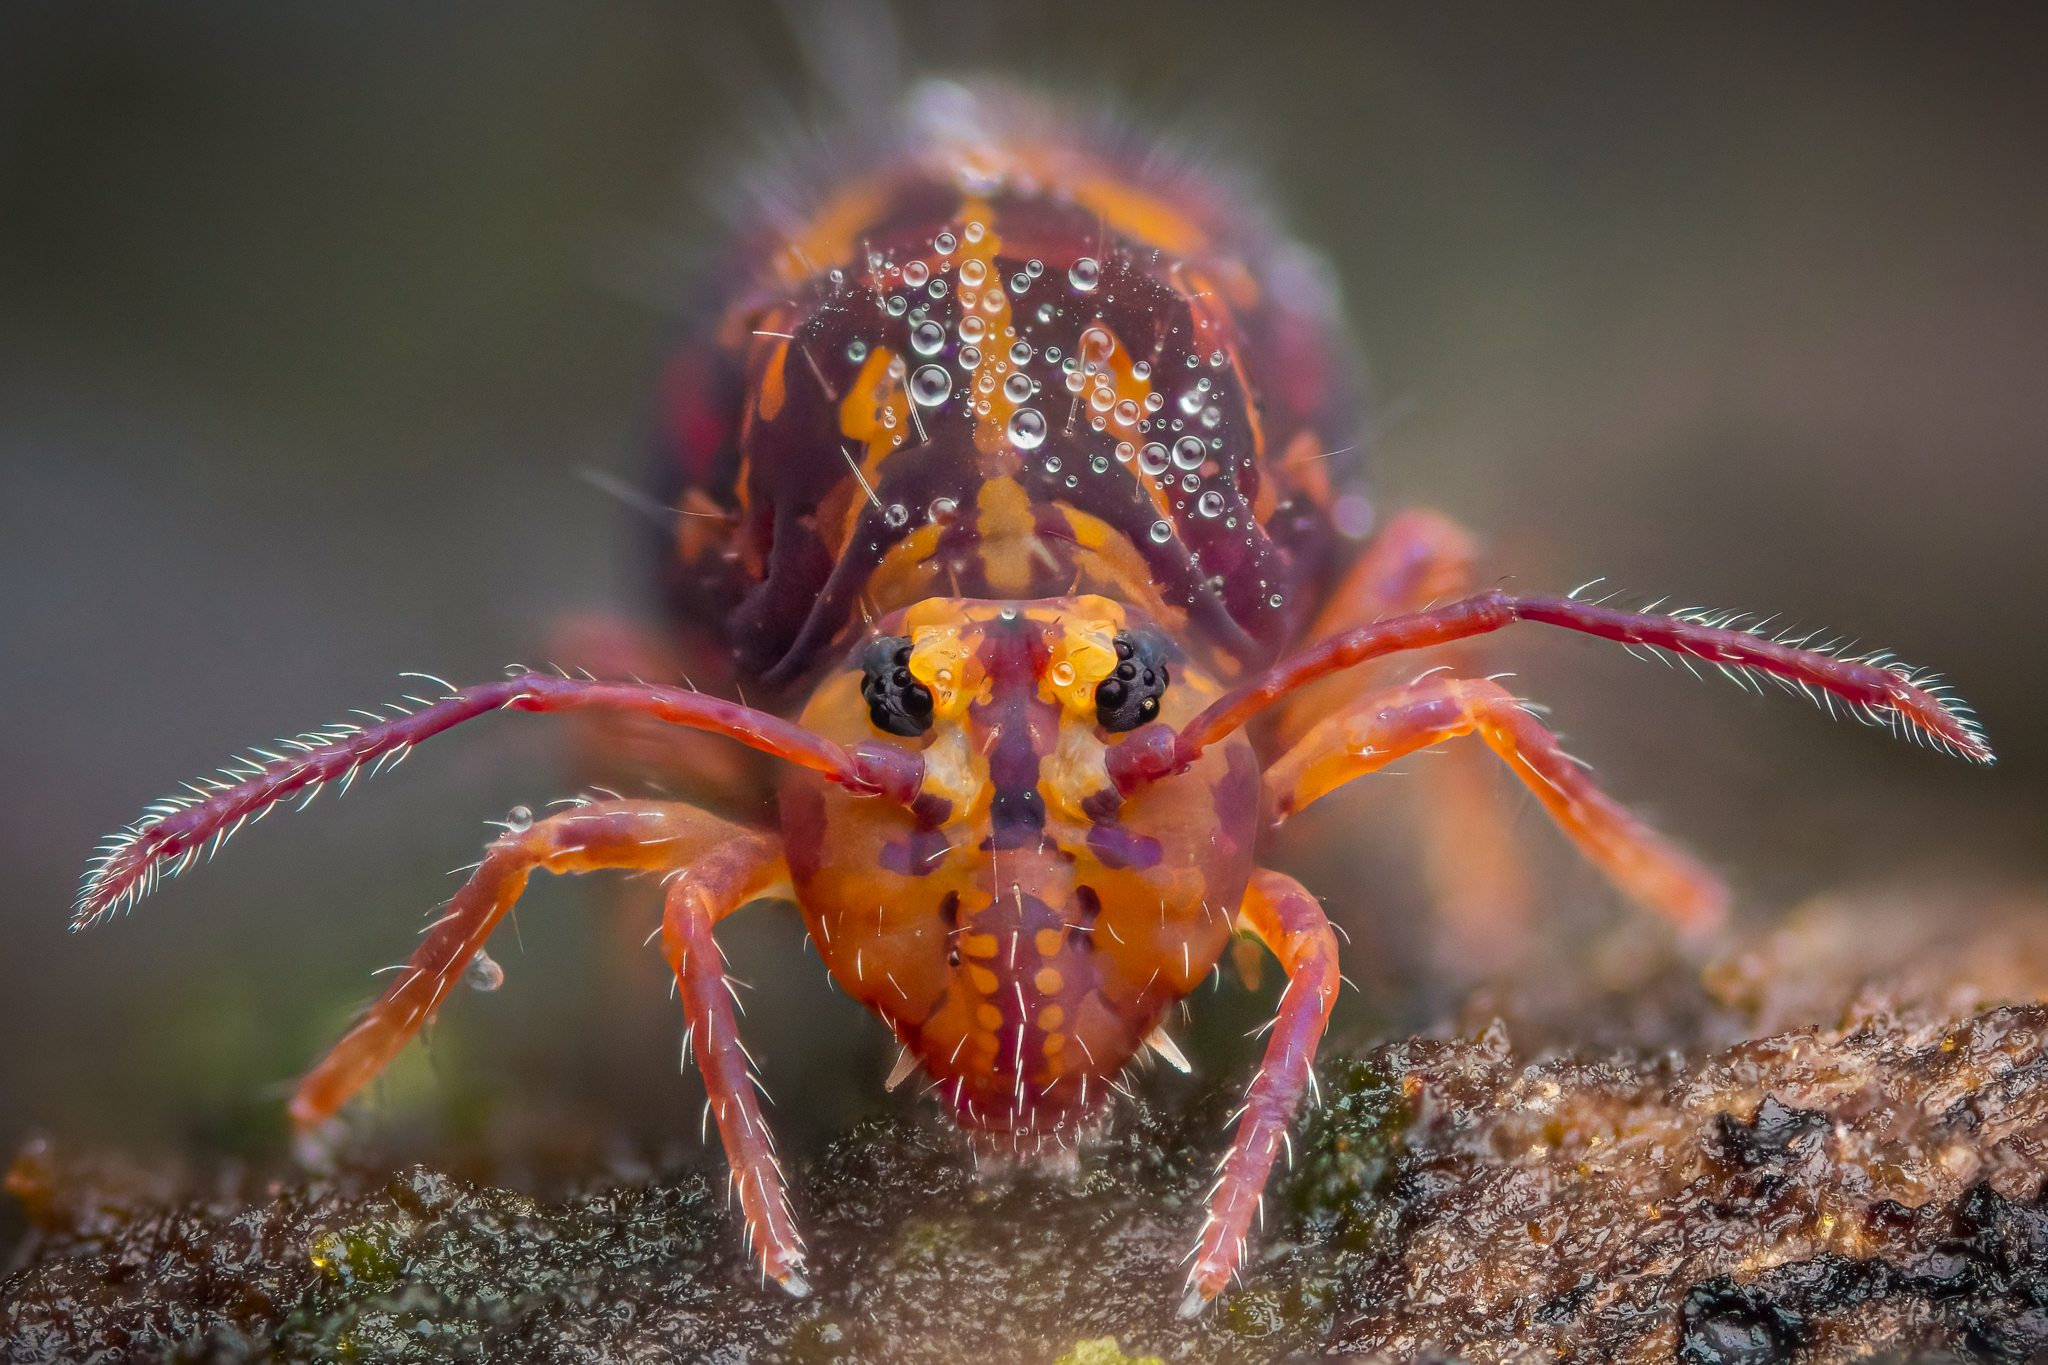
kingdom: Animalia
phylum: Arthropoda
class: Collembola
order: Symphypleona
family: Dicyrtomidae
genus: Dicyrtomina
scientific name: Dicyrtomina ornata
